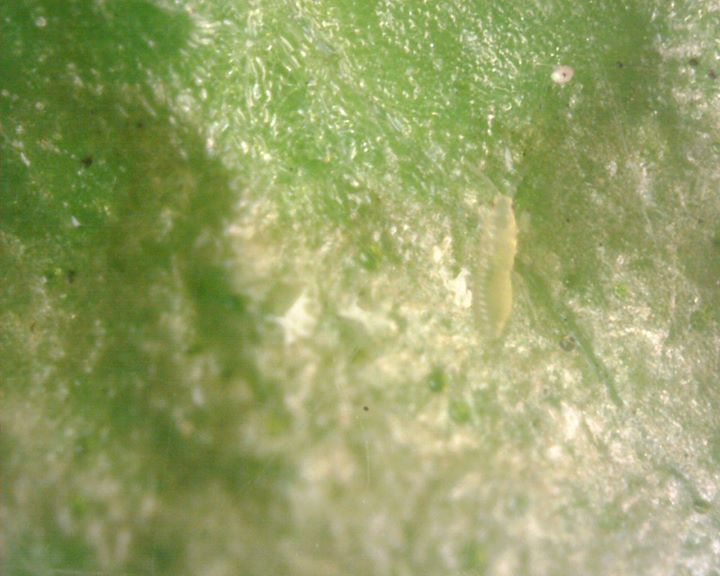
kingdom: Animalia
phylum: Arthropoda
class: Insecta
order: Thysanoptera
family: Thripidae
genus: Scirtothrips
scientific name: Scirtothrips dorsalis
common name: Thrips
